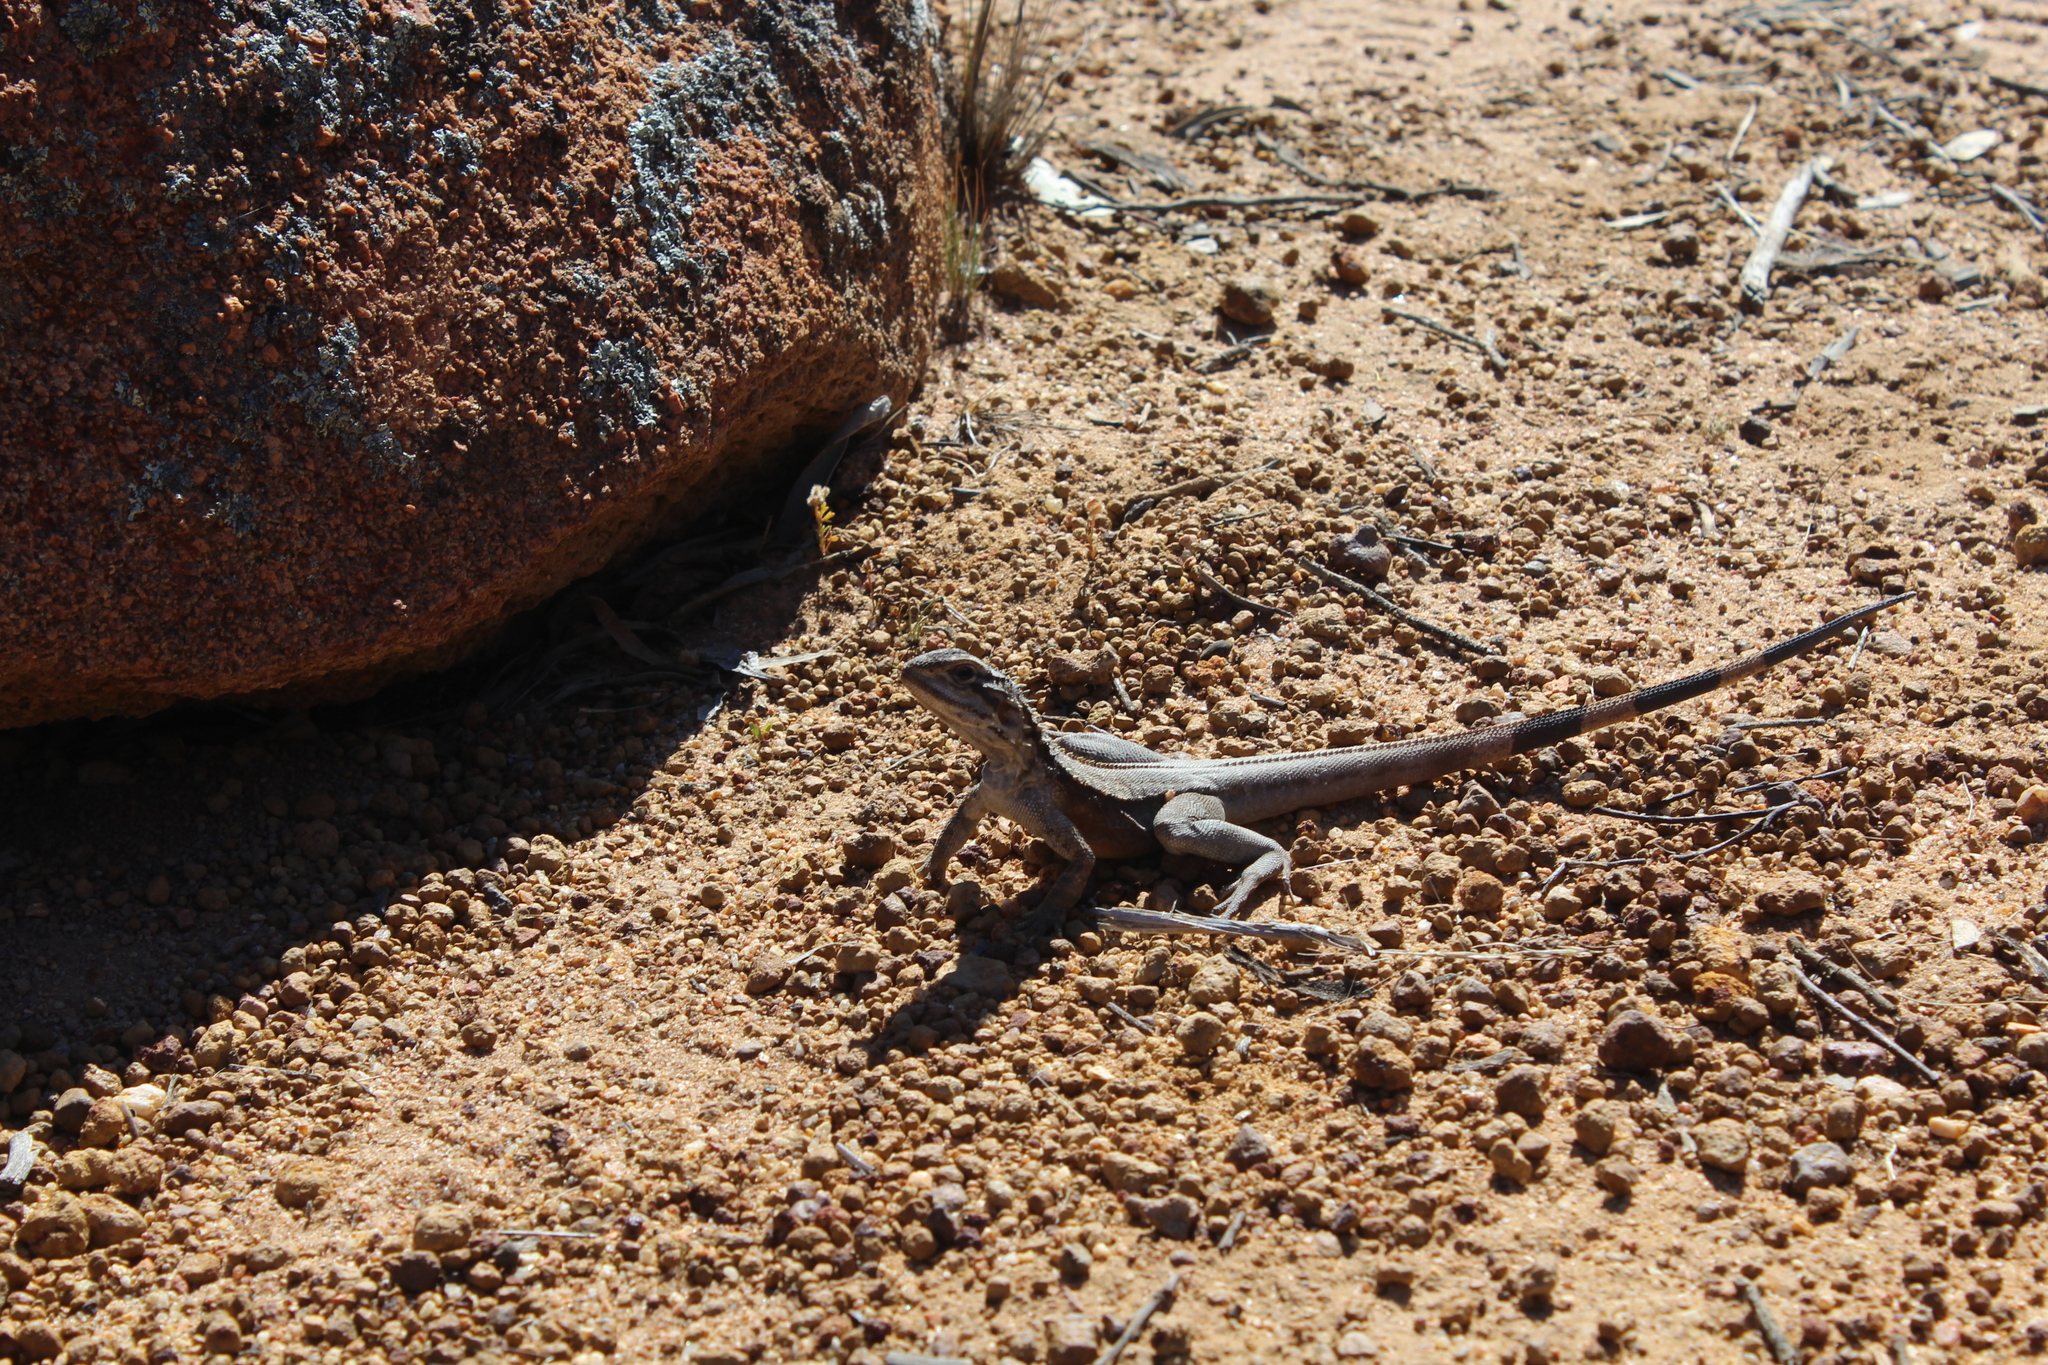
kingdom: Animalia
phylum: Chordata
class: Squamata
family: Agamidae
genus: Ctenophorus
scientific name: Ctenophorus cristatus
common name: Crested dragon
